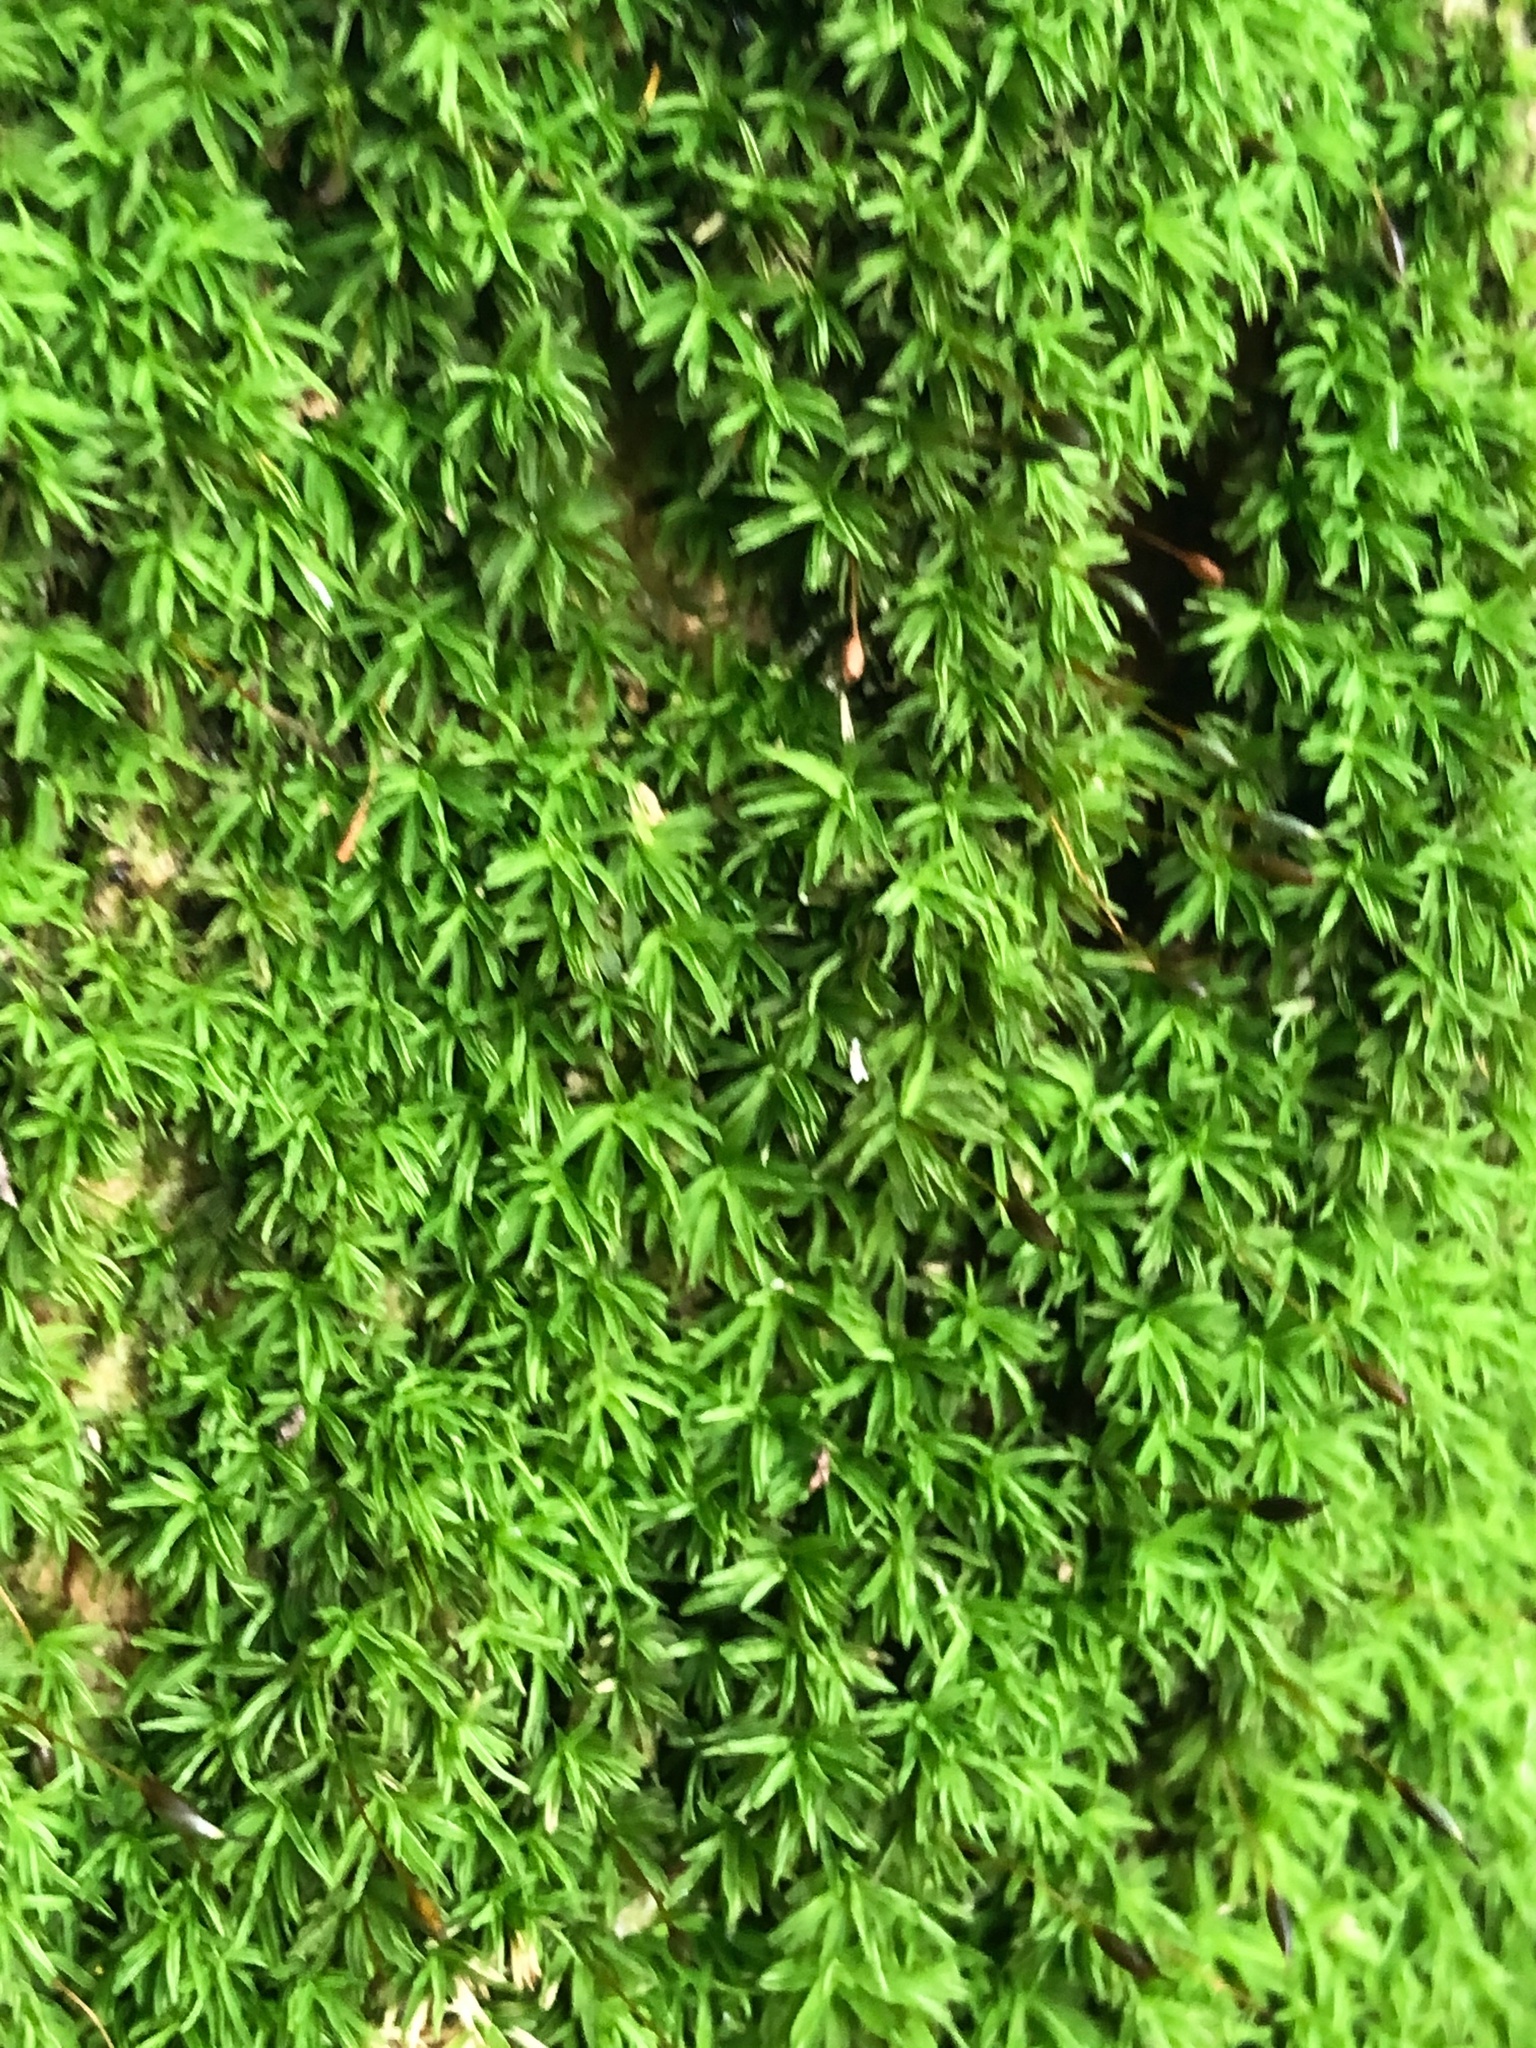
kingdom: Plantae
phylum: Bryophyta
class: Bryopsida
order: Dicranales
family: Octoblepharaceae
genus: Octoblepharum
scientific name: Octoblepharum albidum
